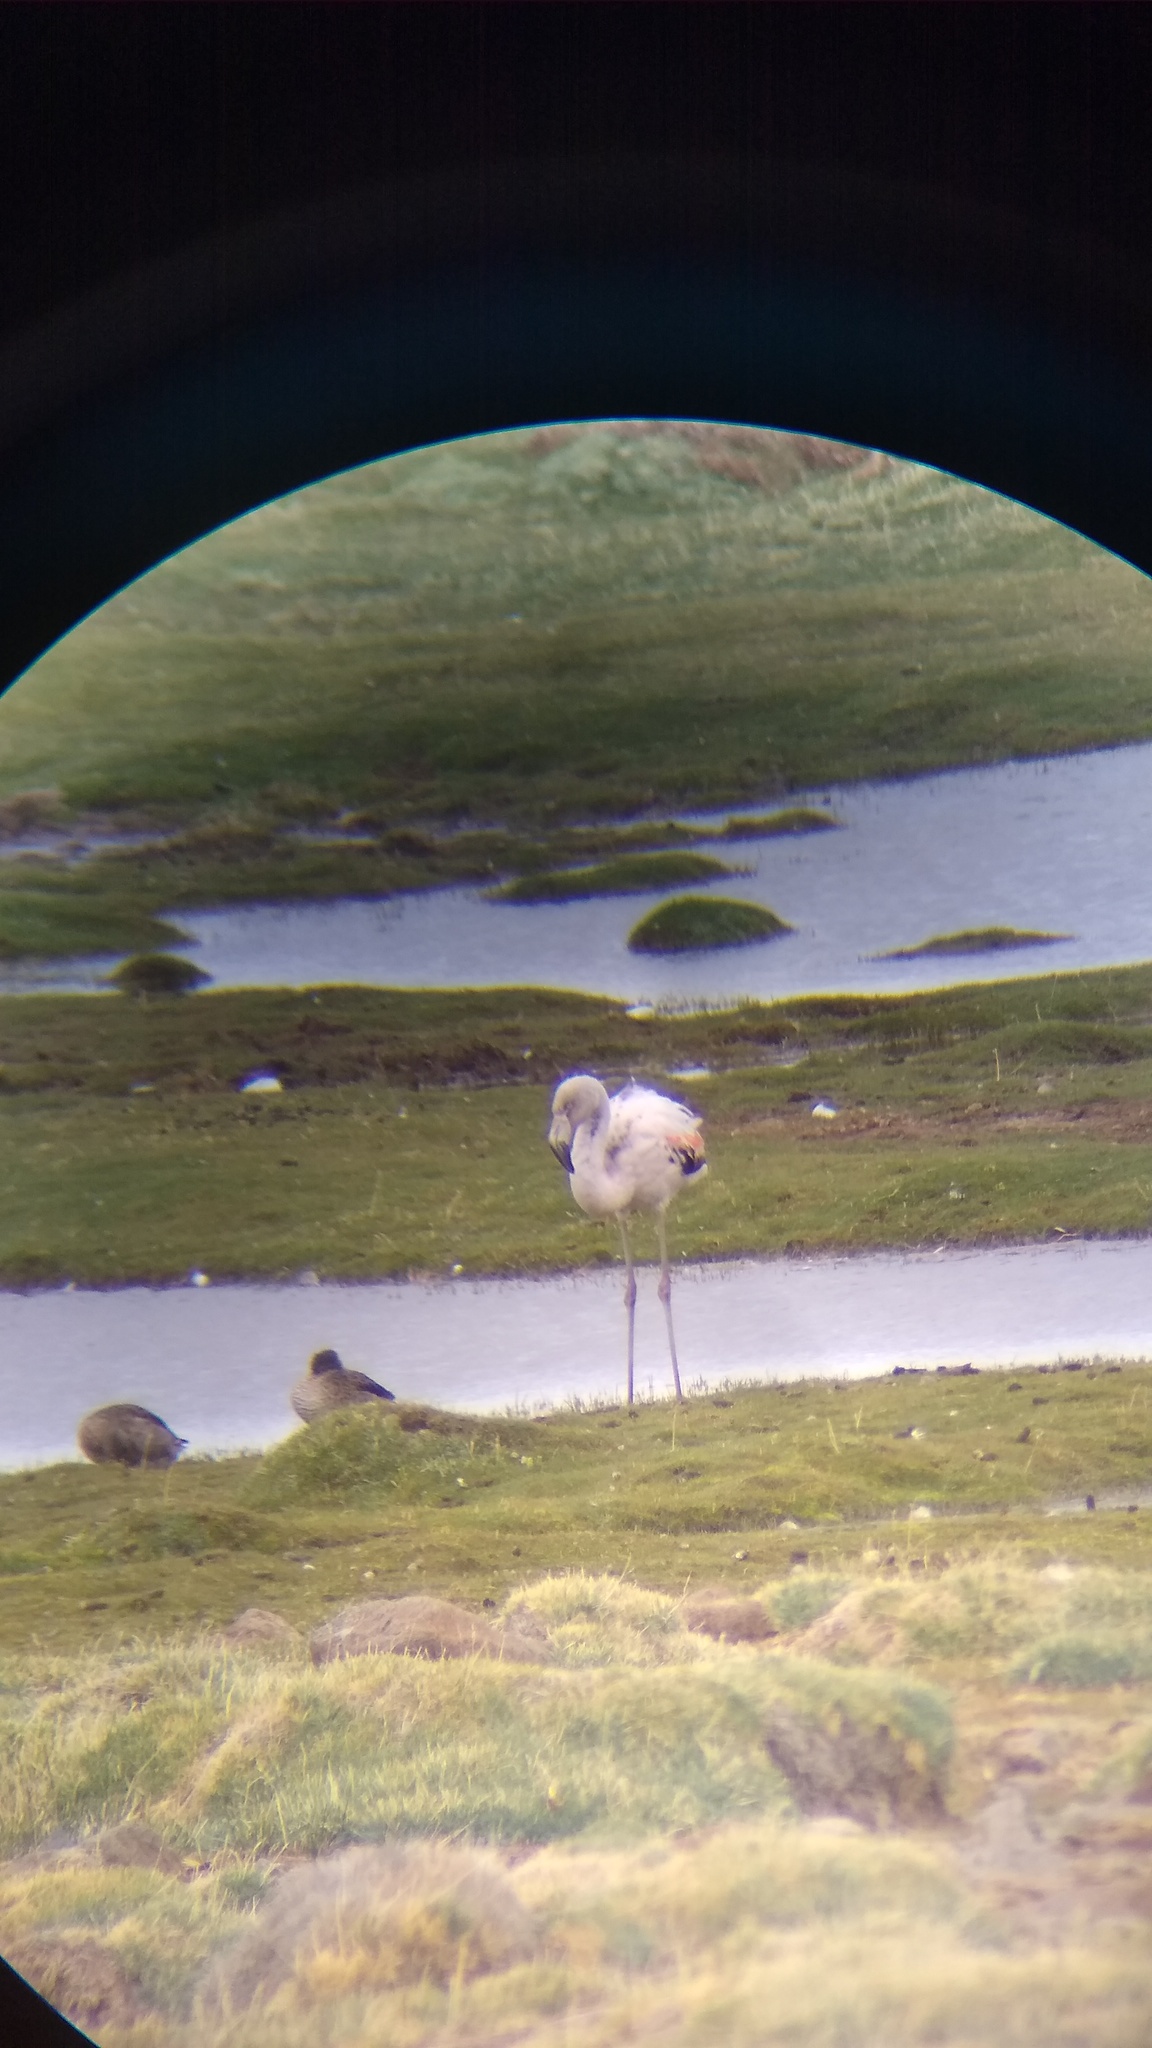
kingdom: Animalia
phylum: Chordata
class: Aves
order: Phoenicopteriformes
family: Phoenicopteridae
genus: Phoenicopterus
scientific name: Phoenicopterus chilensis
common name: Chilean flamingo
